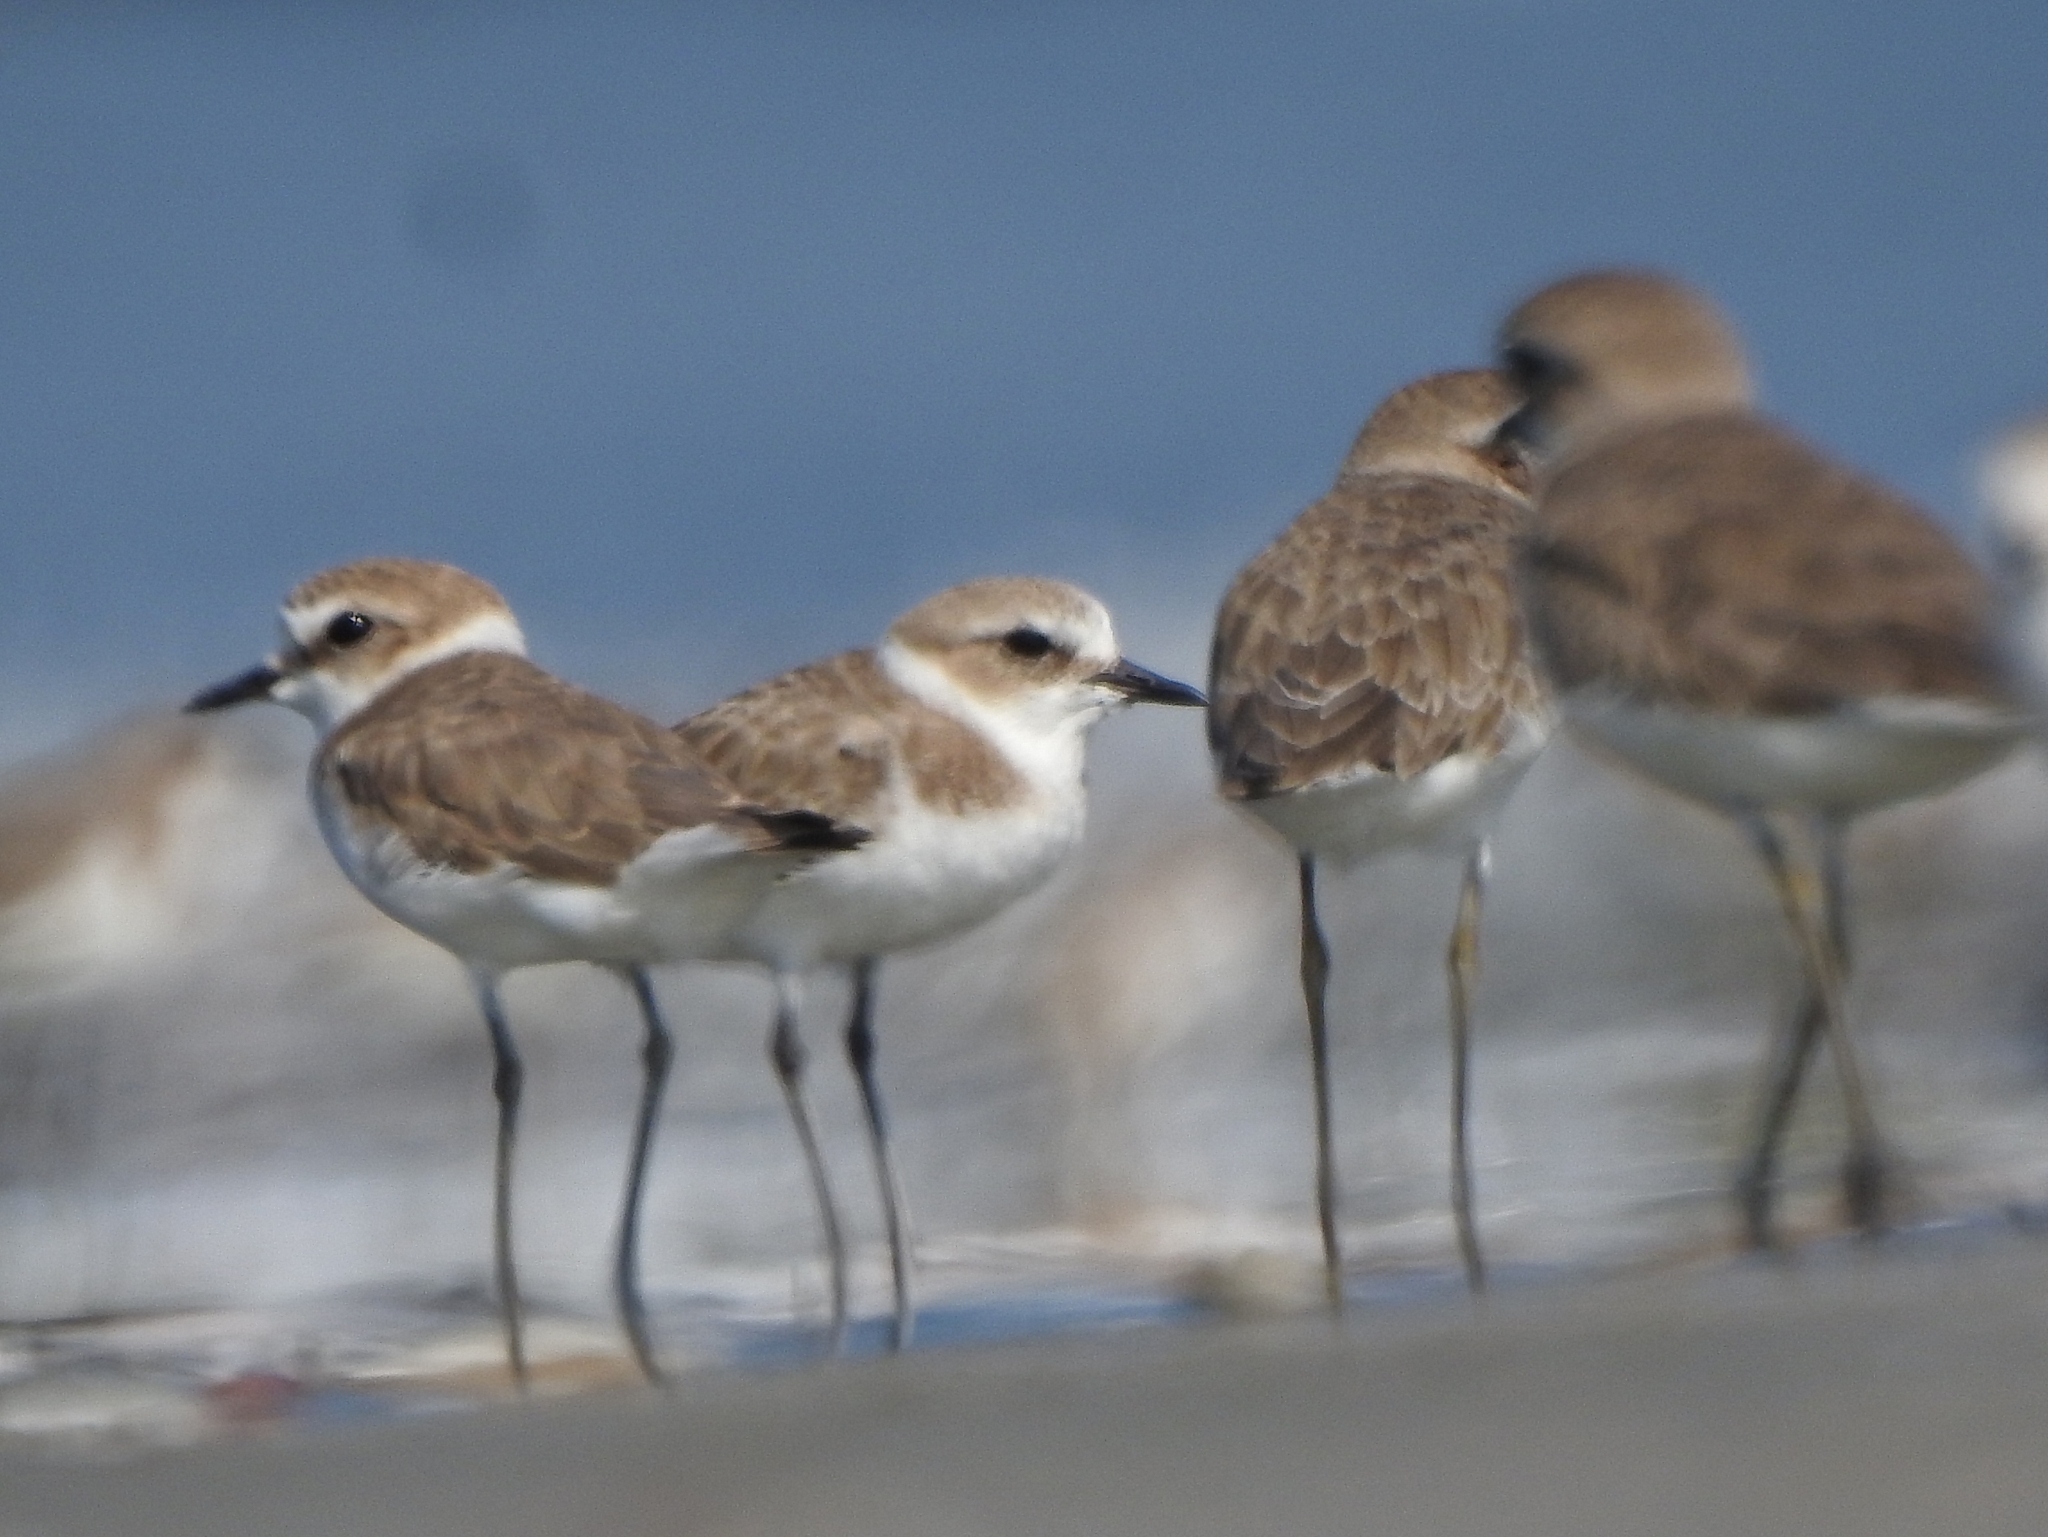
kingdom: Animalia
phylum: Chordata
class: Aves
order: Charadriiformes
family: Charadriidae
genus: Charadrius
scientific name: Charadrius alexandrinus
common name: Kentish plover
